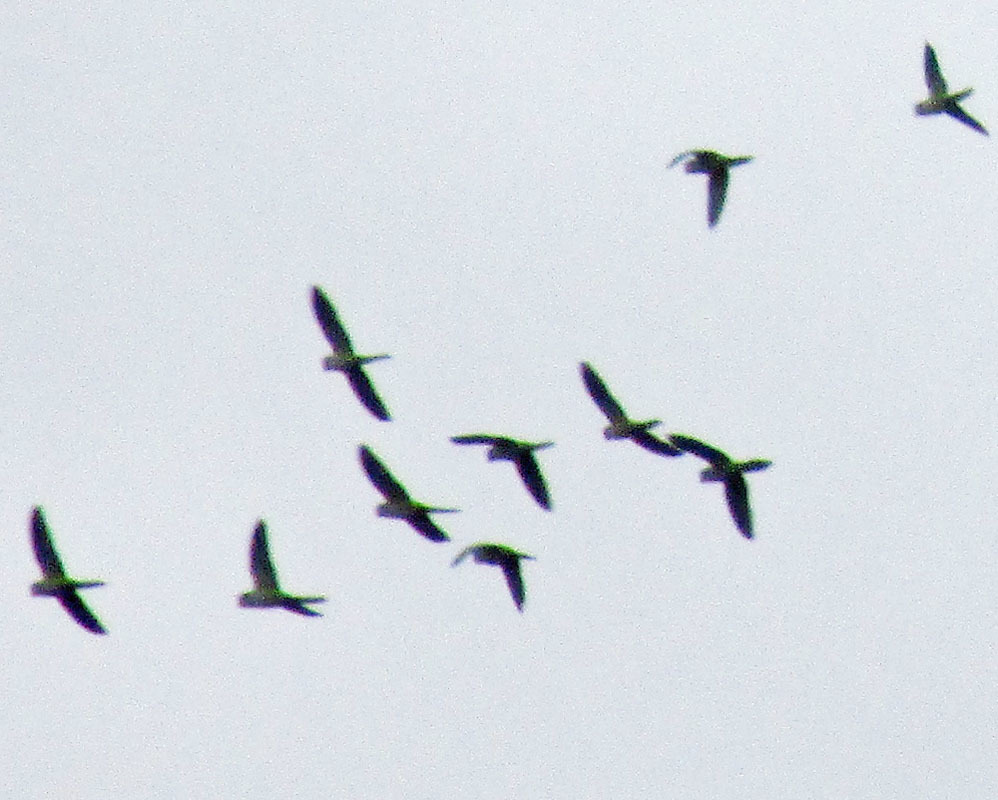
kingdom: Animalia
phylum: Chordata
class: Aves
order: Psittaciformes
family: Psittacidae
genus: Myiopsitta
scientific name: Myiopsitta monachus
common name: Monk parakeet
